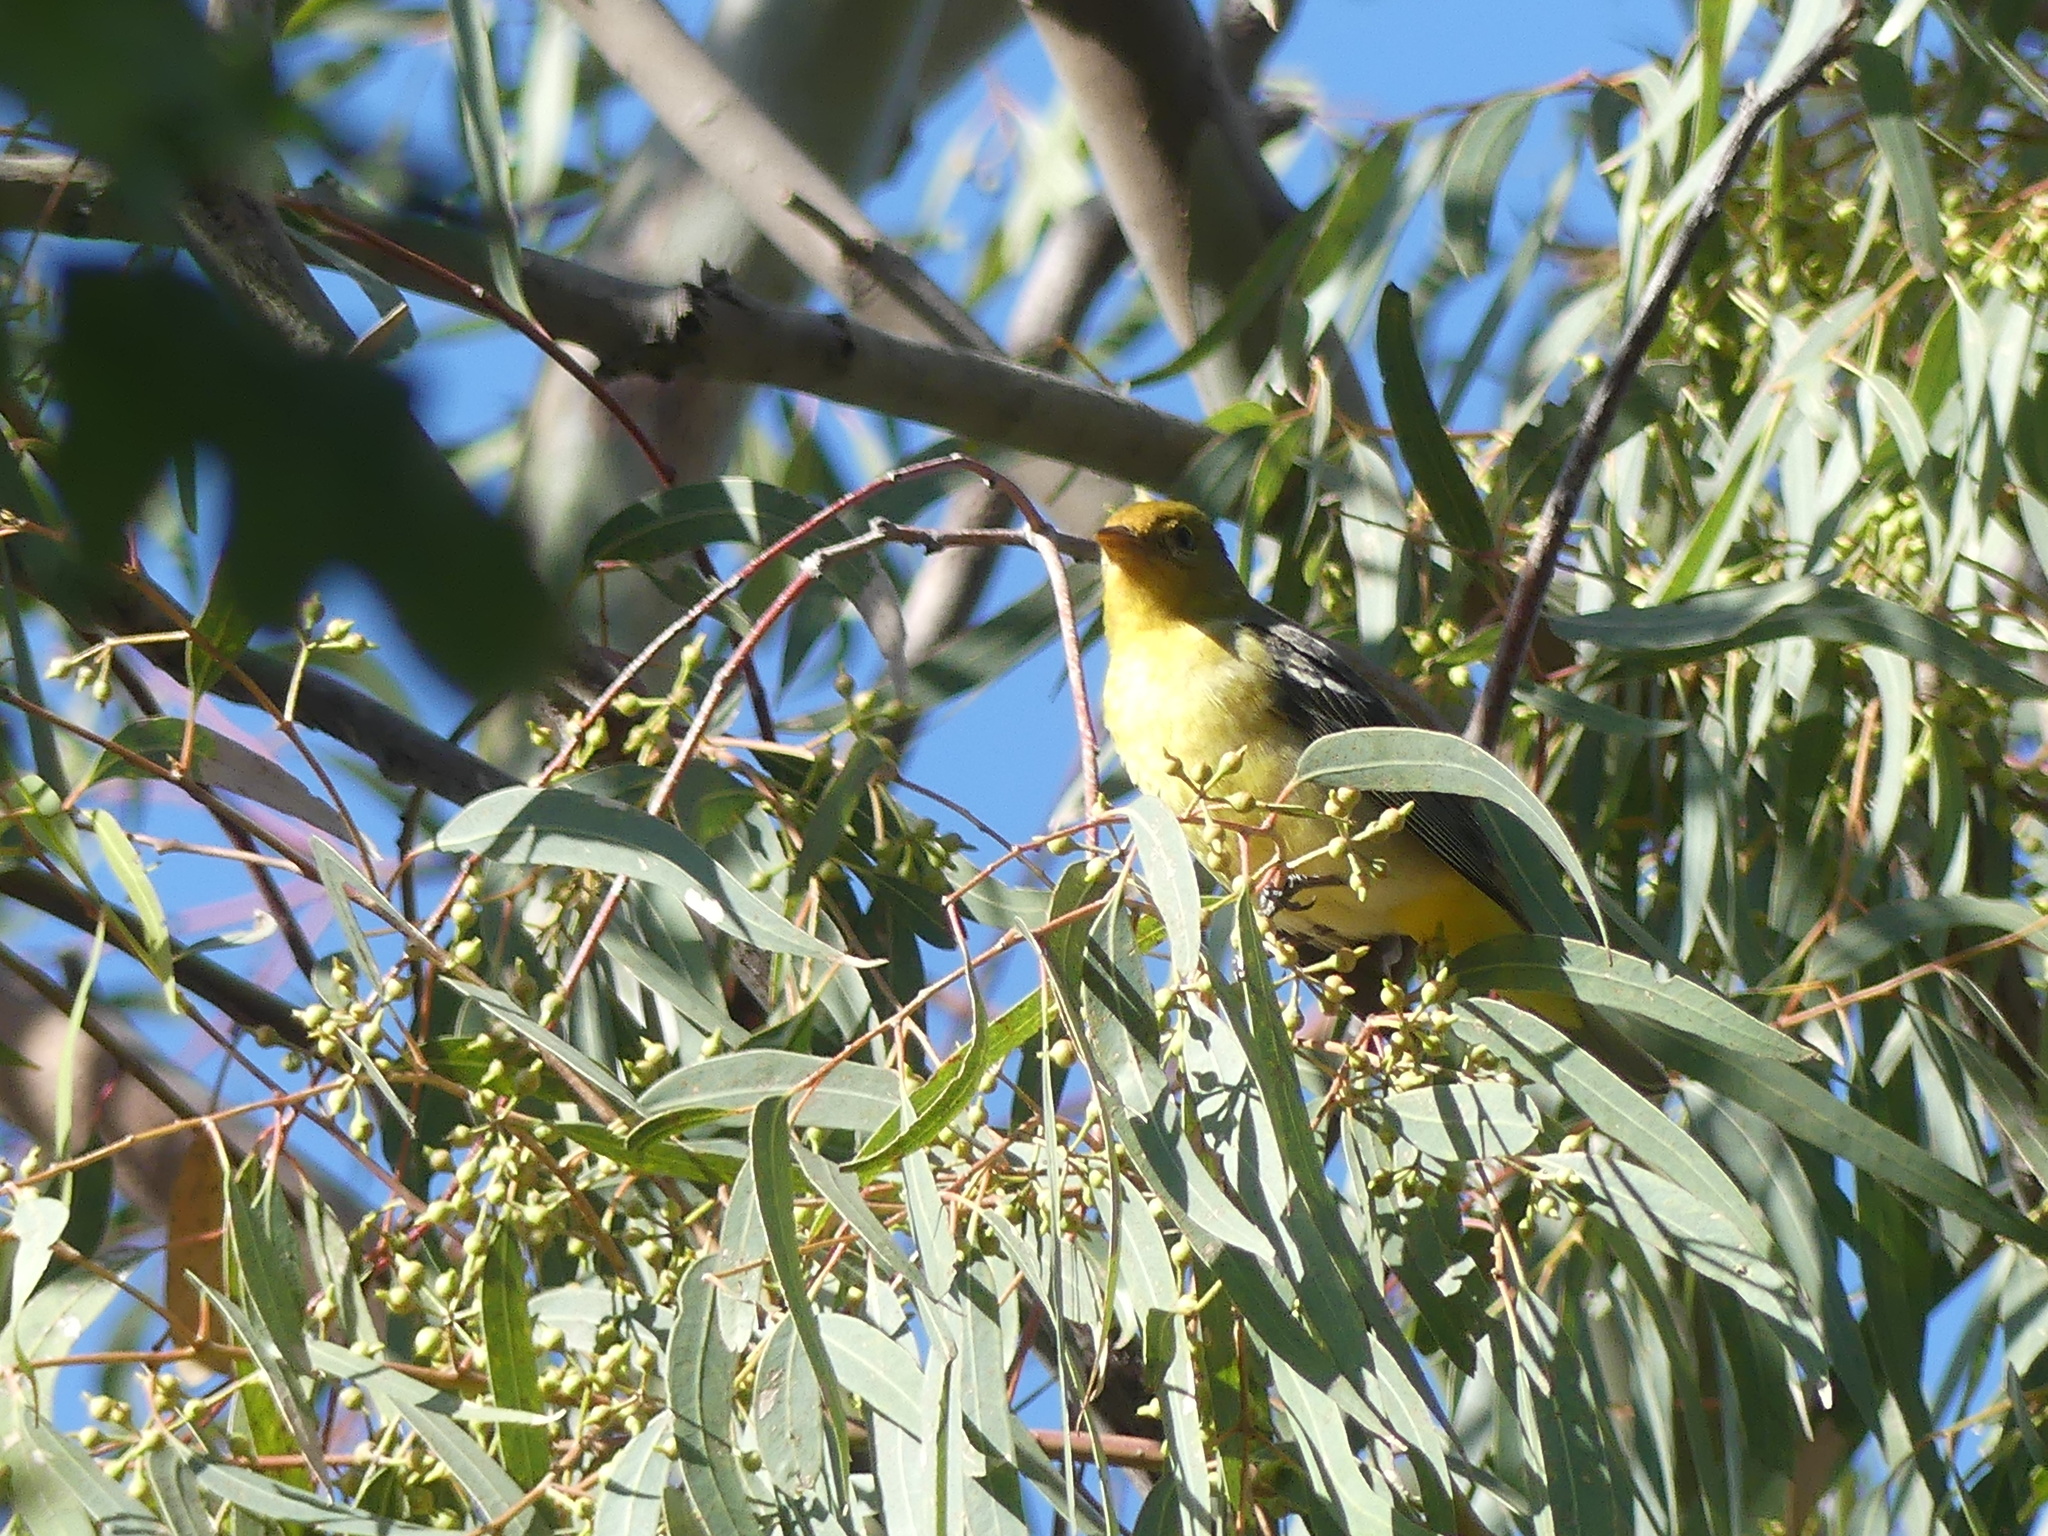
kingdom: Animalia
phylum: Chordata
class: Aves
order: Passeriformes
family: Cardinalidae
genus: Piranga
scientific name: Piranga ludoviciana
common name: Western tanager
